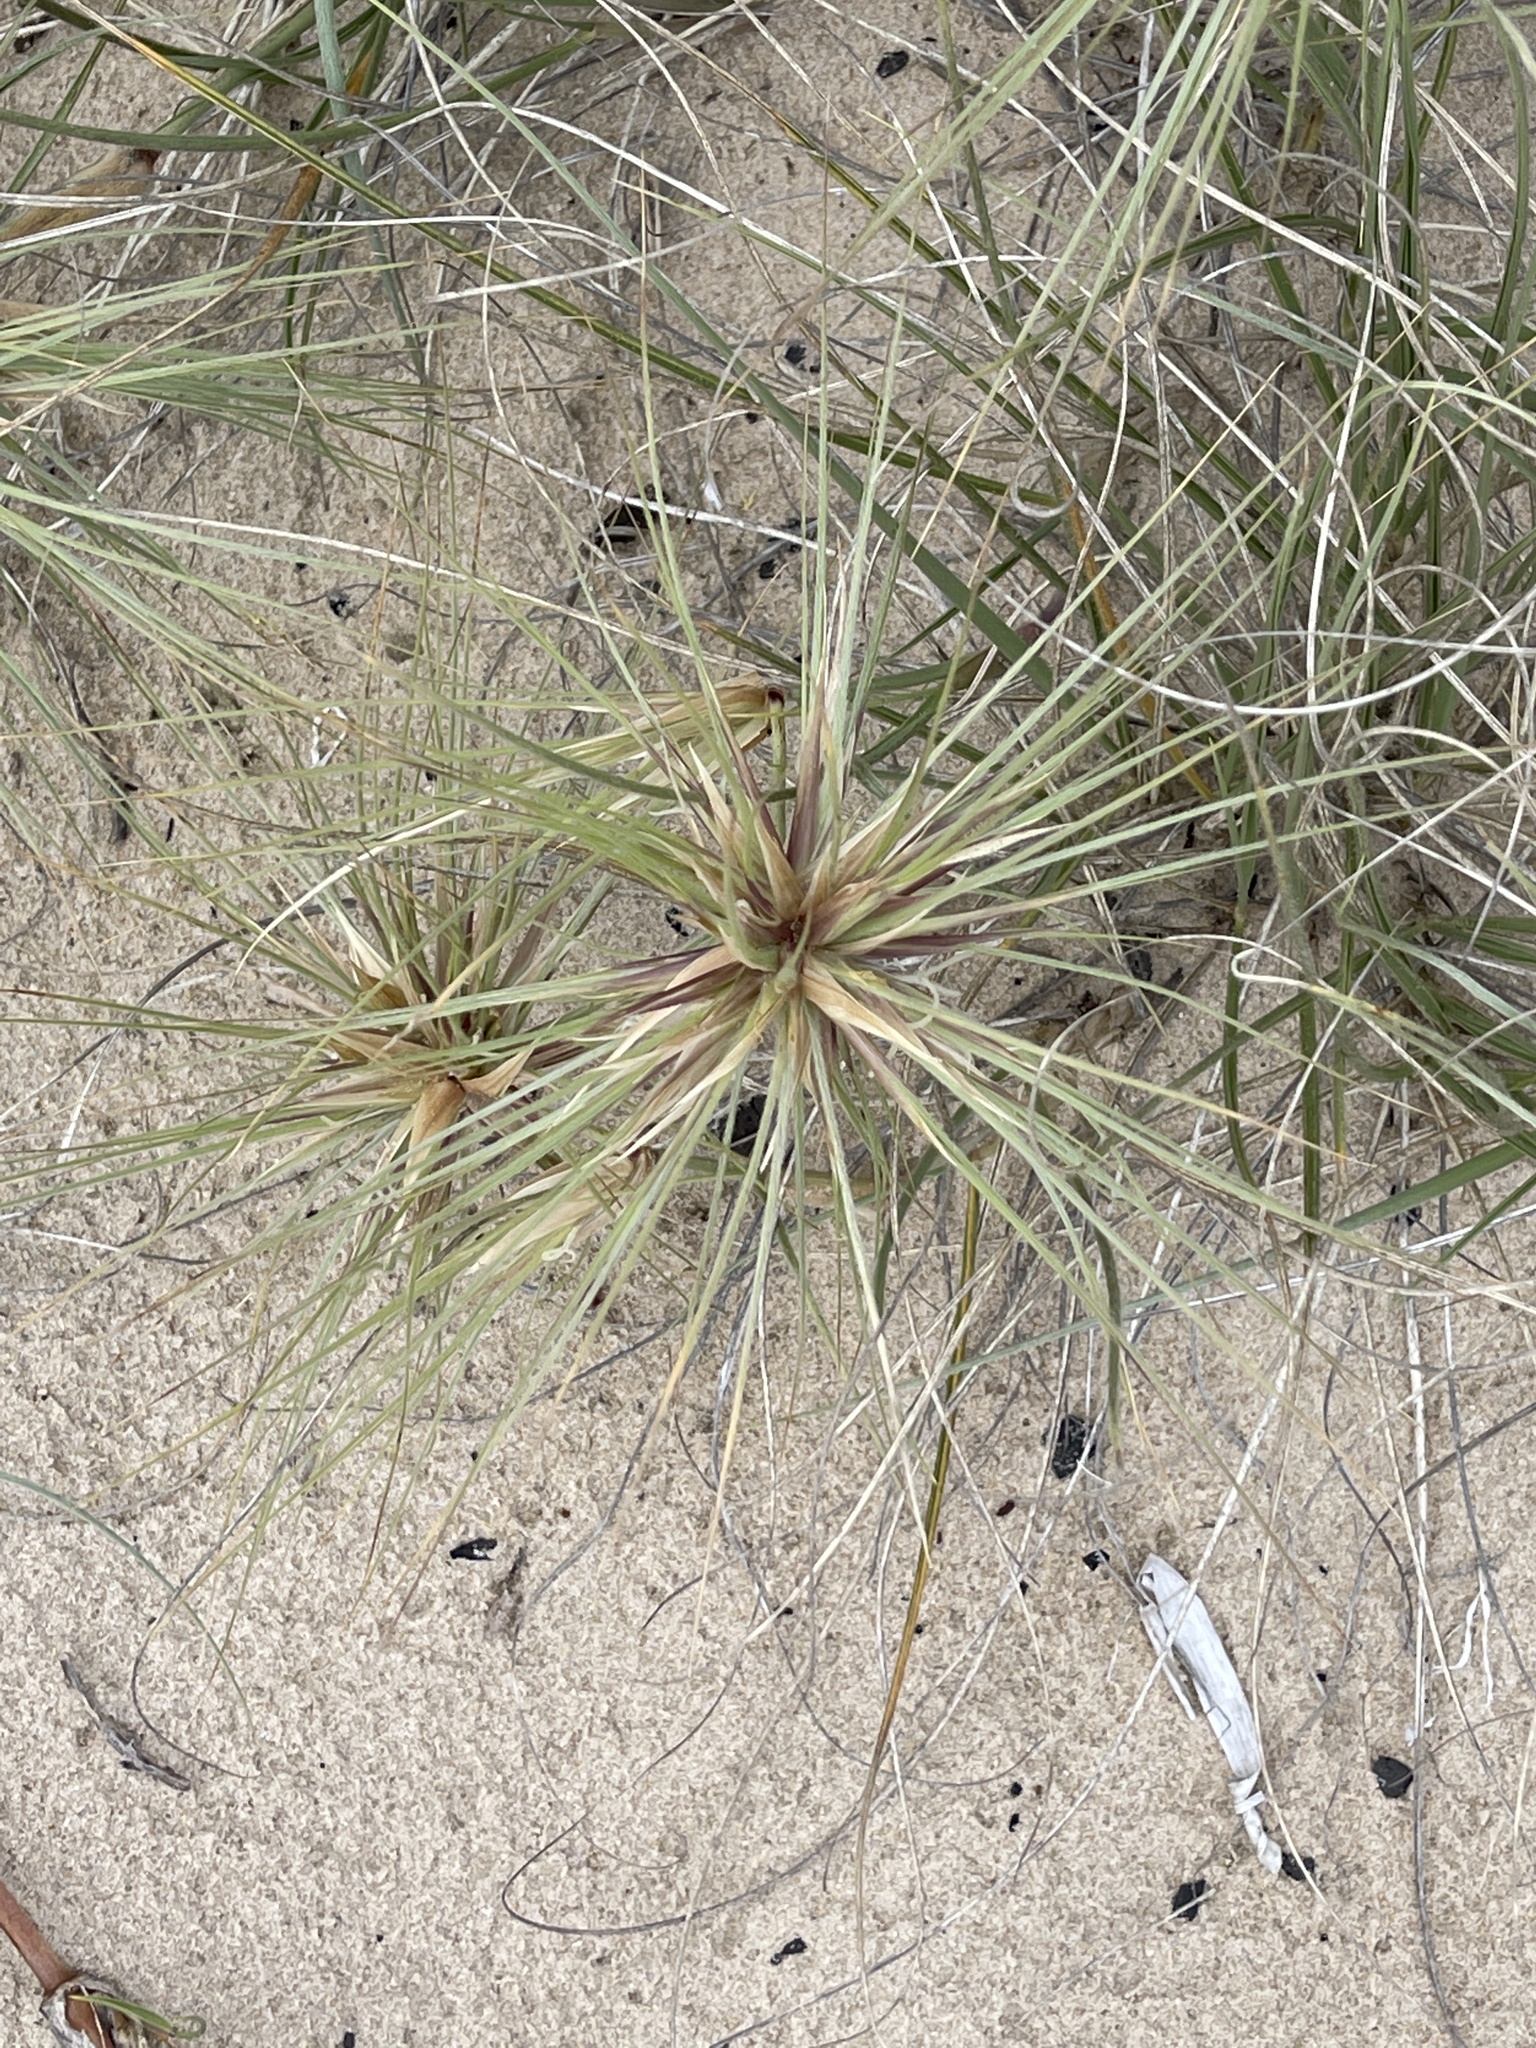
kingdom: Plantae
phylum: Tracheophyta
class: Liliopsida
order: Poales
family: Poaceae
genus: Spinifex
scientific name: Spinifex sericeus
